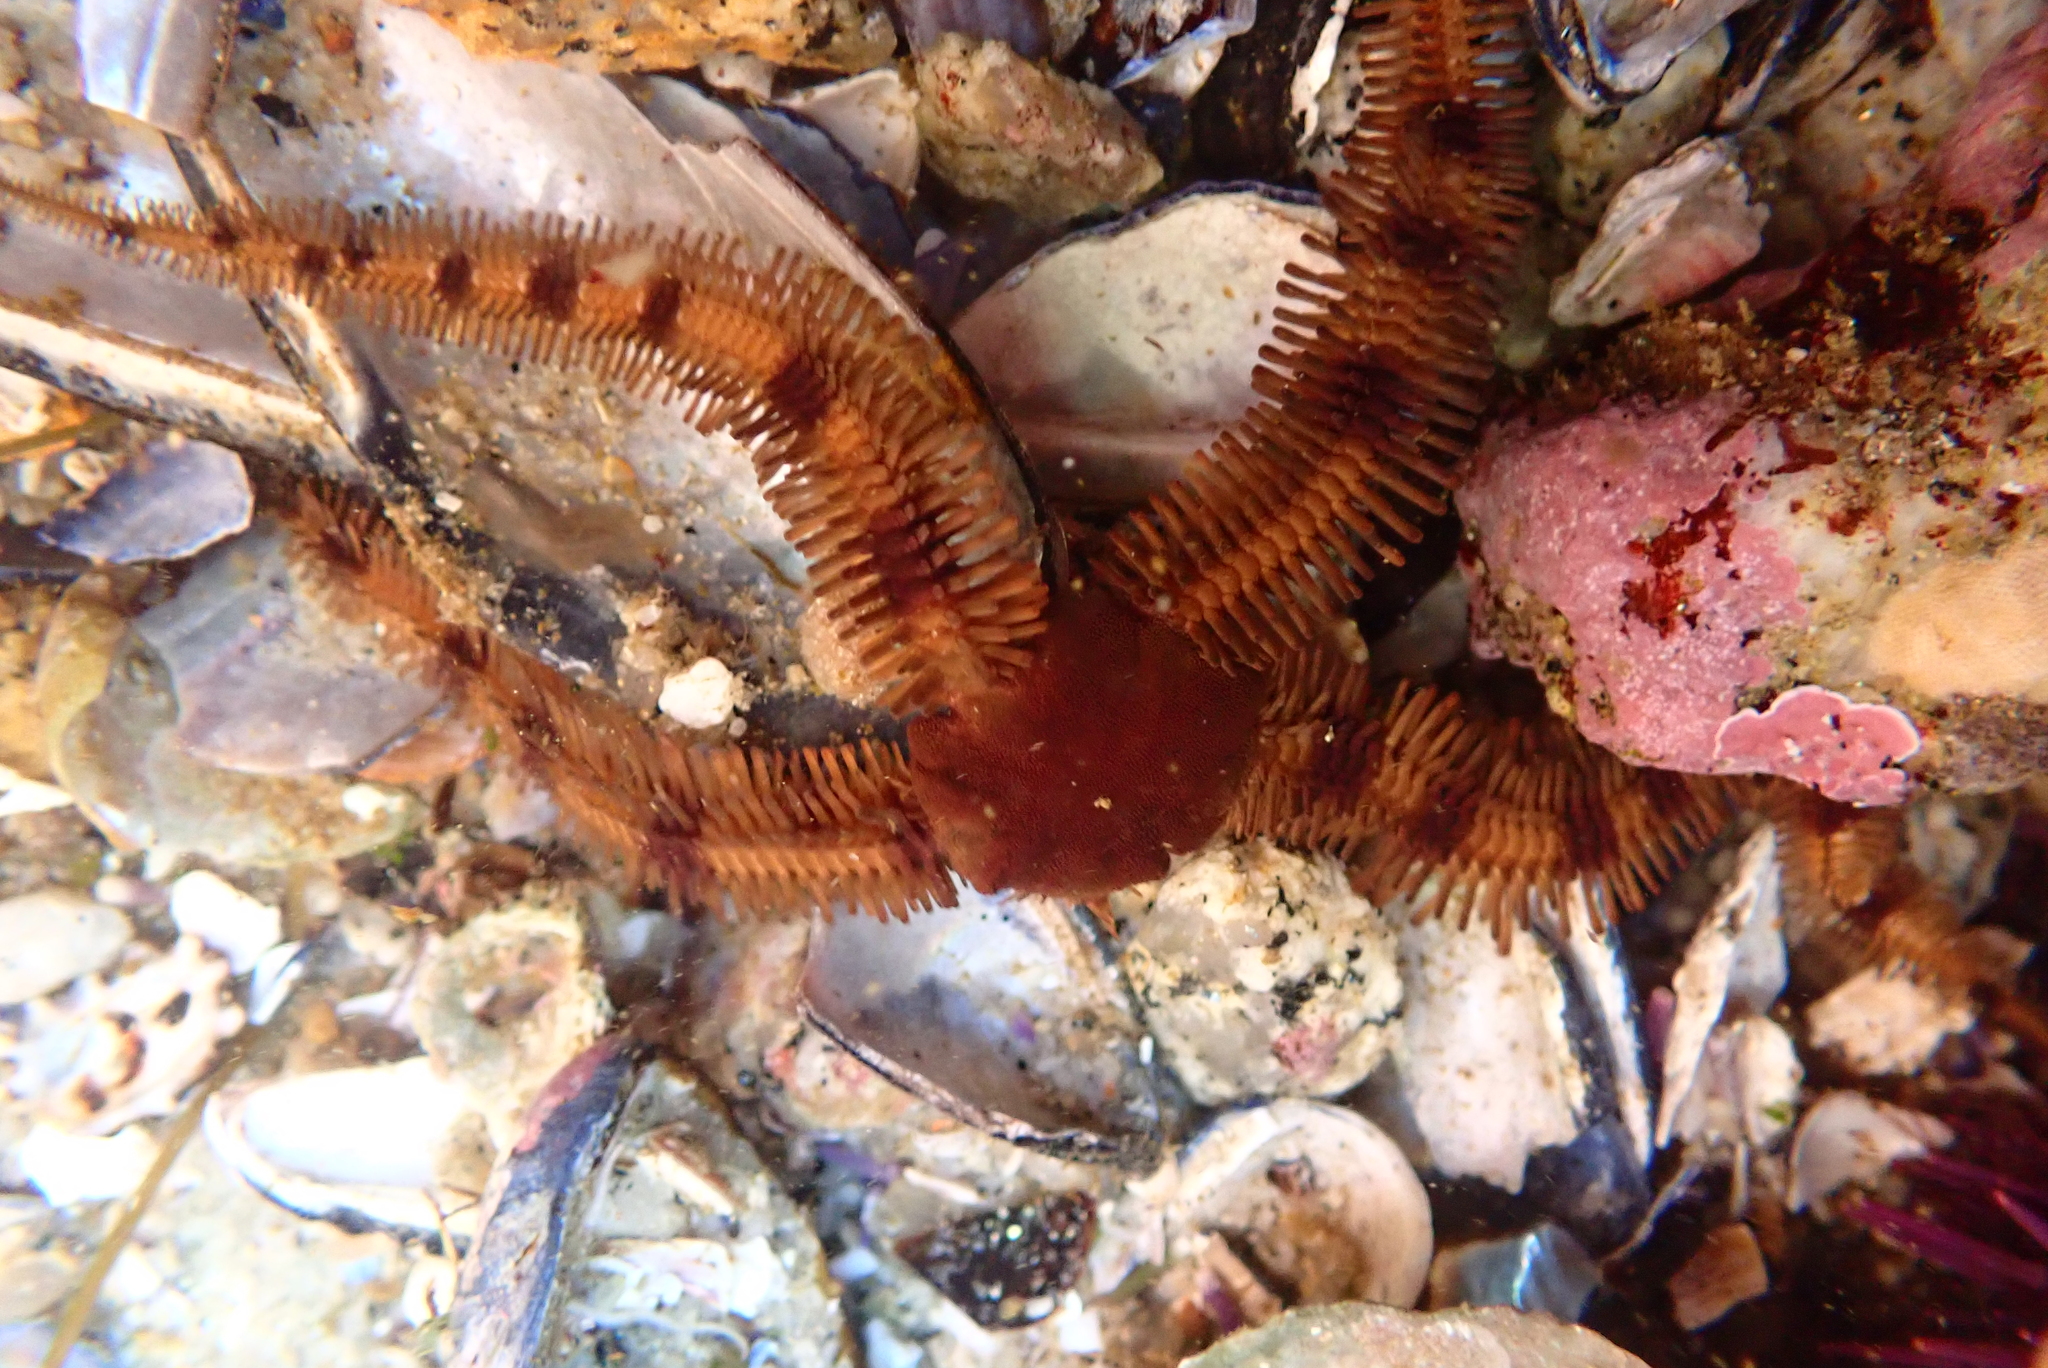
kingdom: Animalia
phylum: Echinodermata
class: Ophiuroidea
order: Ophiacanthida
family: Ophiopteridae
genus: Ophiopteris
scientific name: Ophiopteris papillosa
